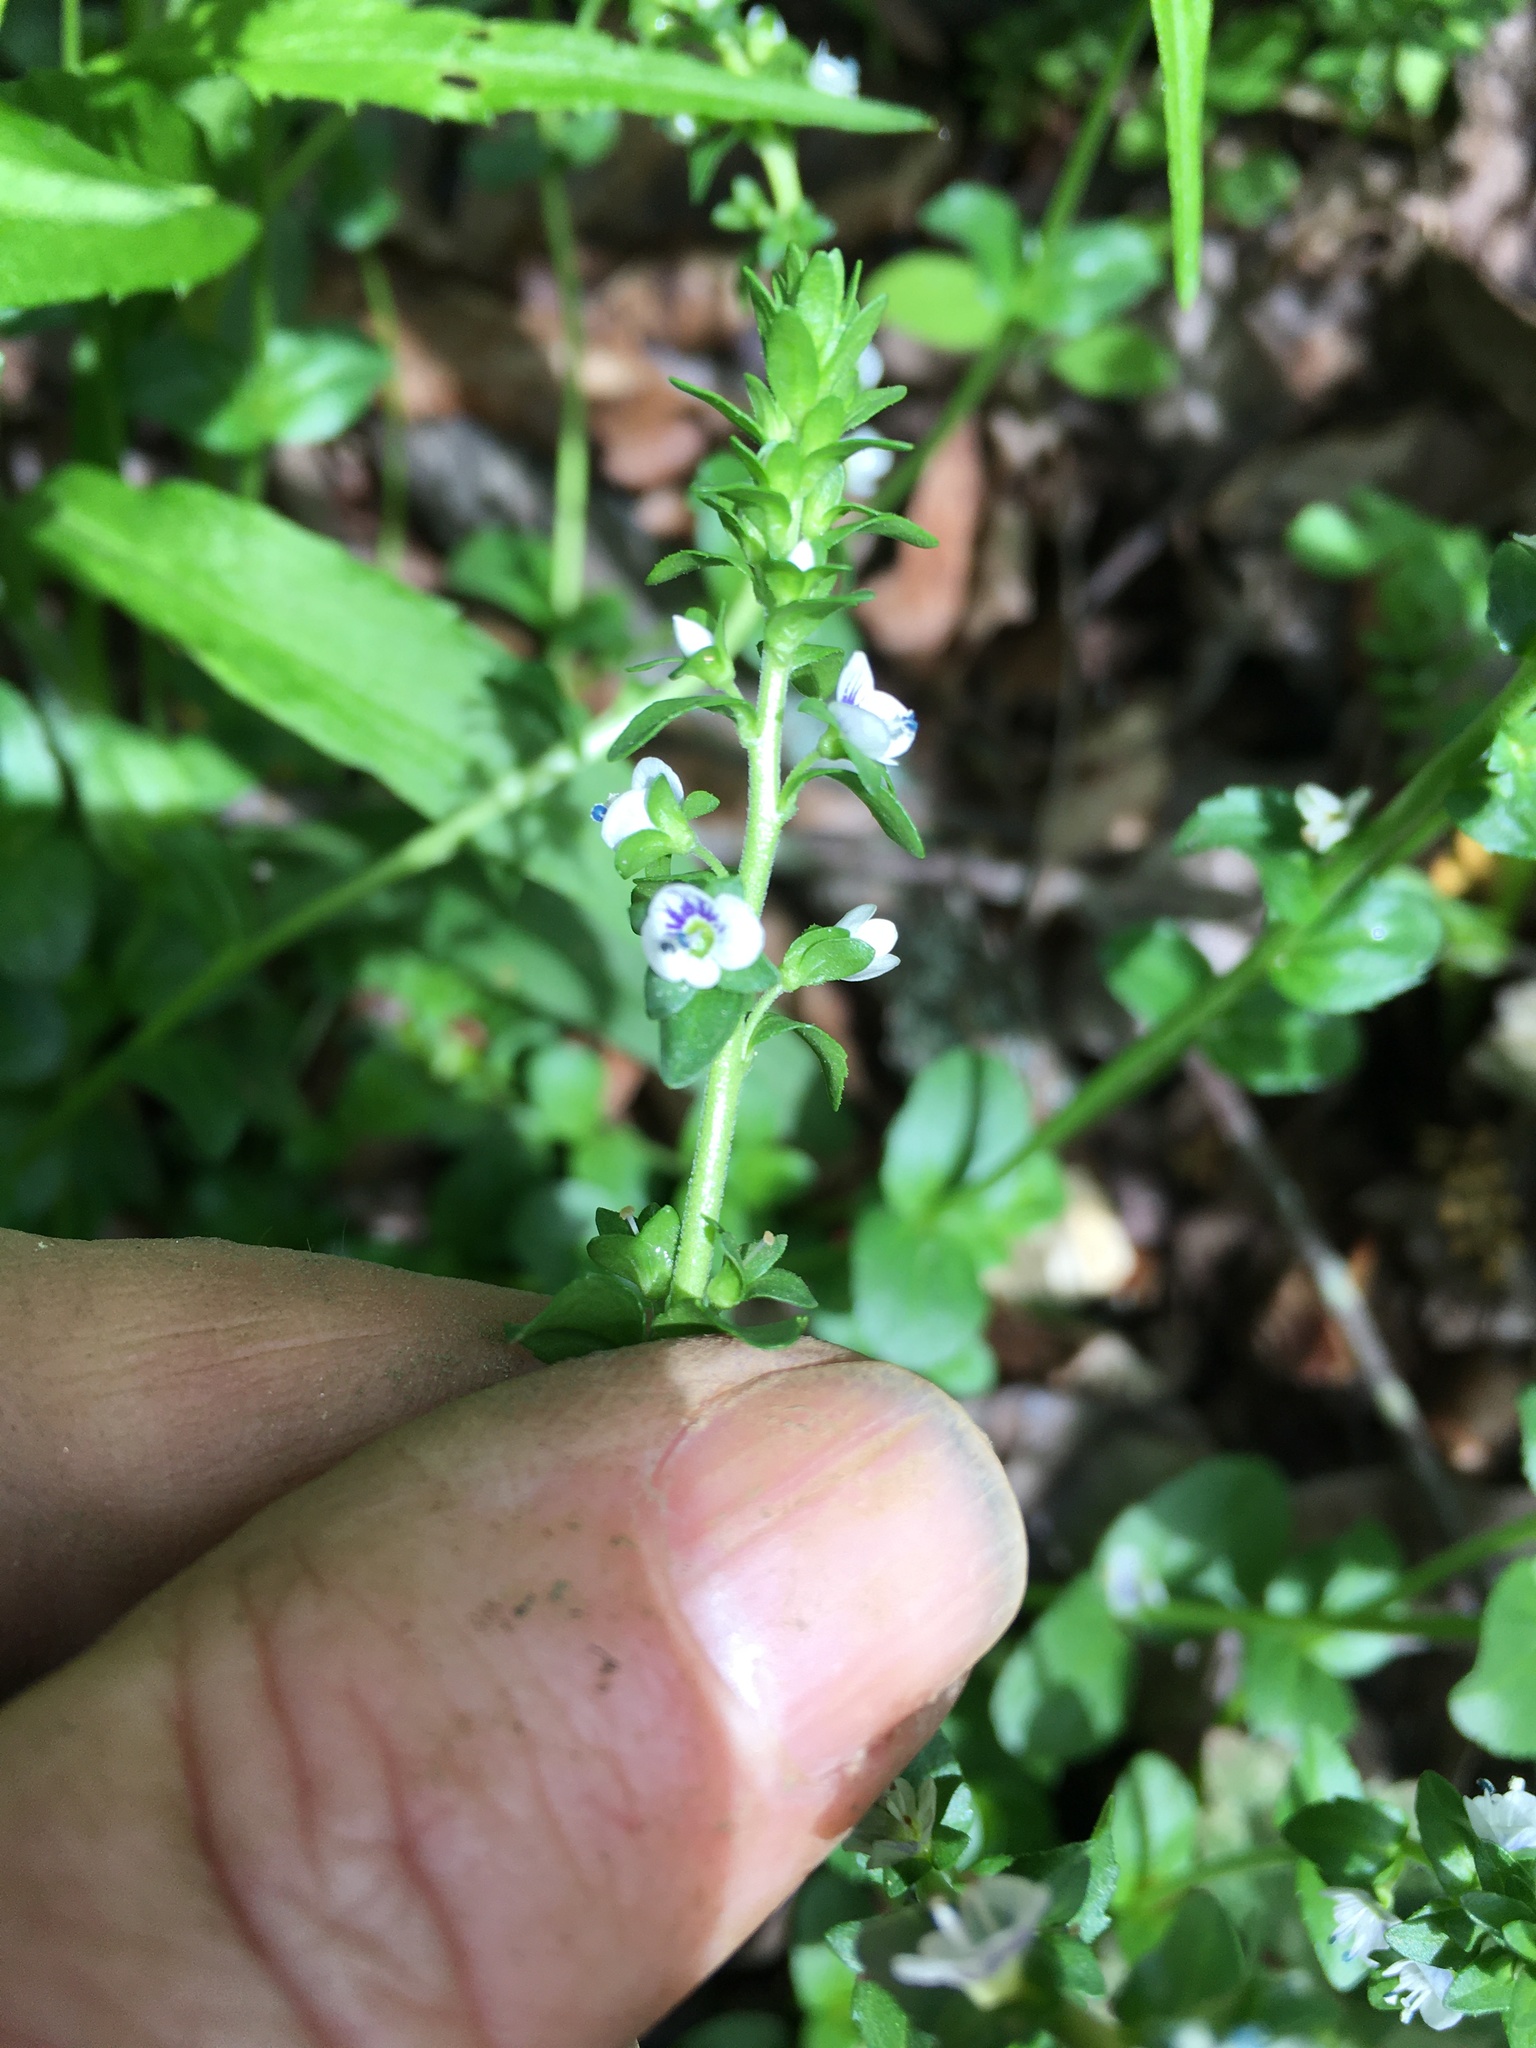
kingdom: Plantae
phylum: Tracheophyta
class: Magnoliopsida
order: Lamiales
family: Plantaginaceae
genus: Veronica
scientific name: Veronica serpyllifolia
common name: Thyme-leaved speedwell
